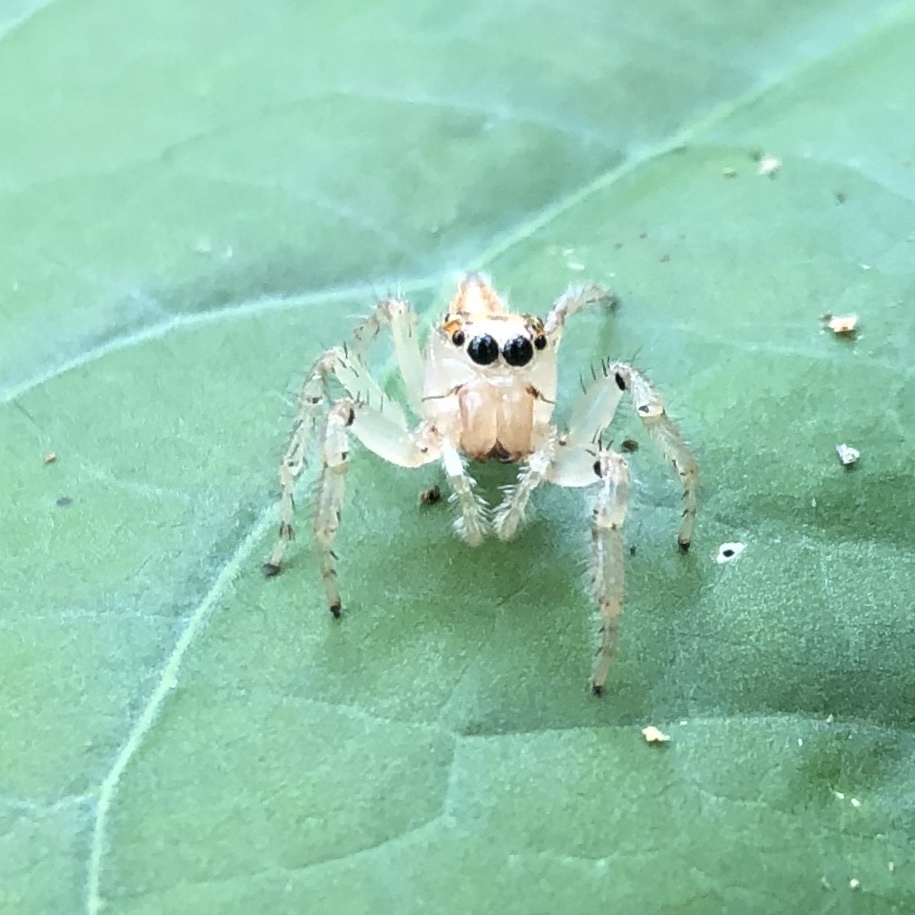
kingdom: Animalia
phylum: Arthropoda
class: Arachnida
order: Araneae
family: Salticidae
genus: Colonus
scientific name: Colonus sylvanus
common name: Jumping spiders
